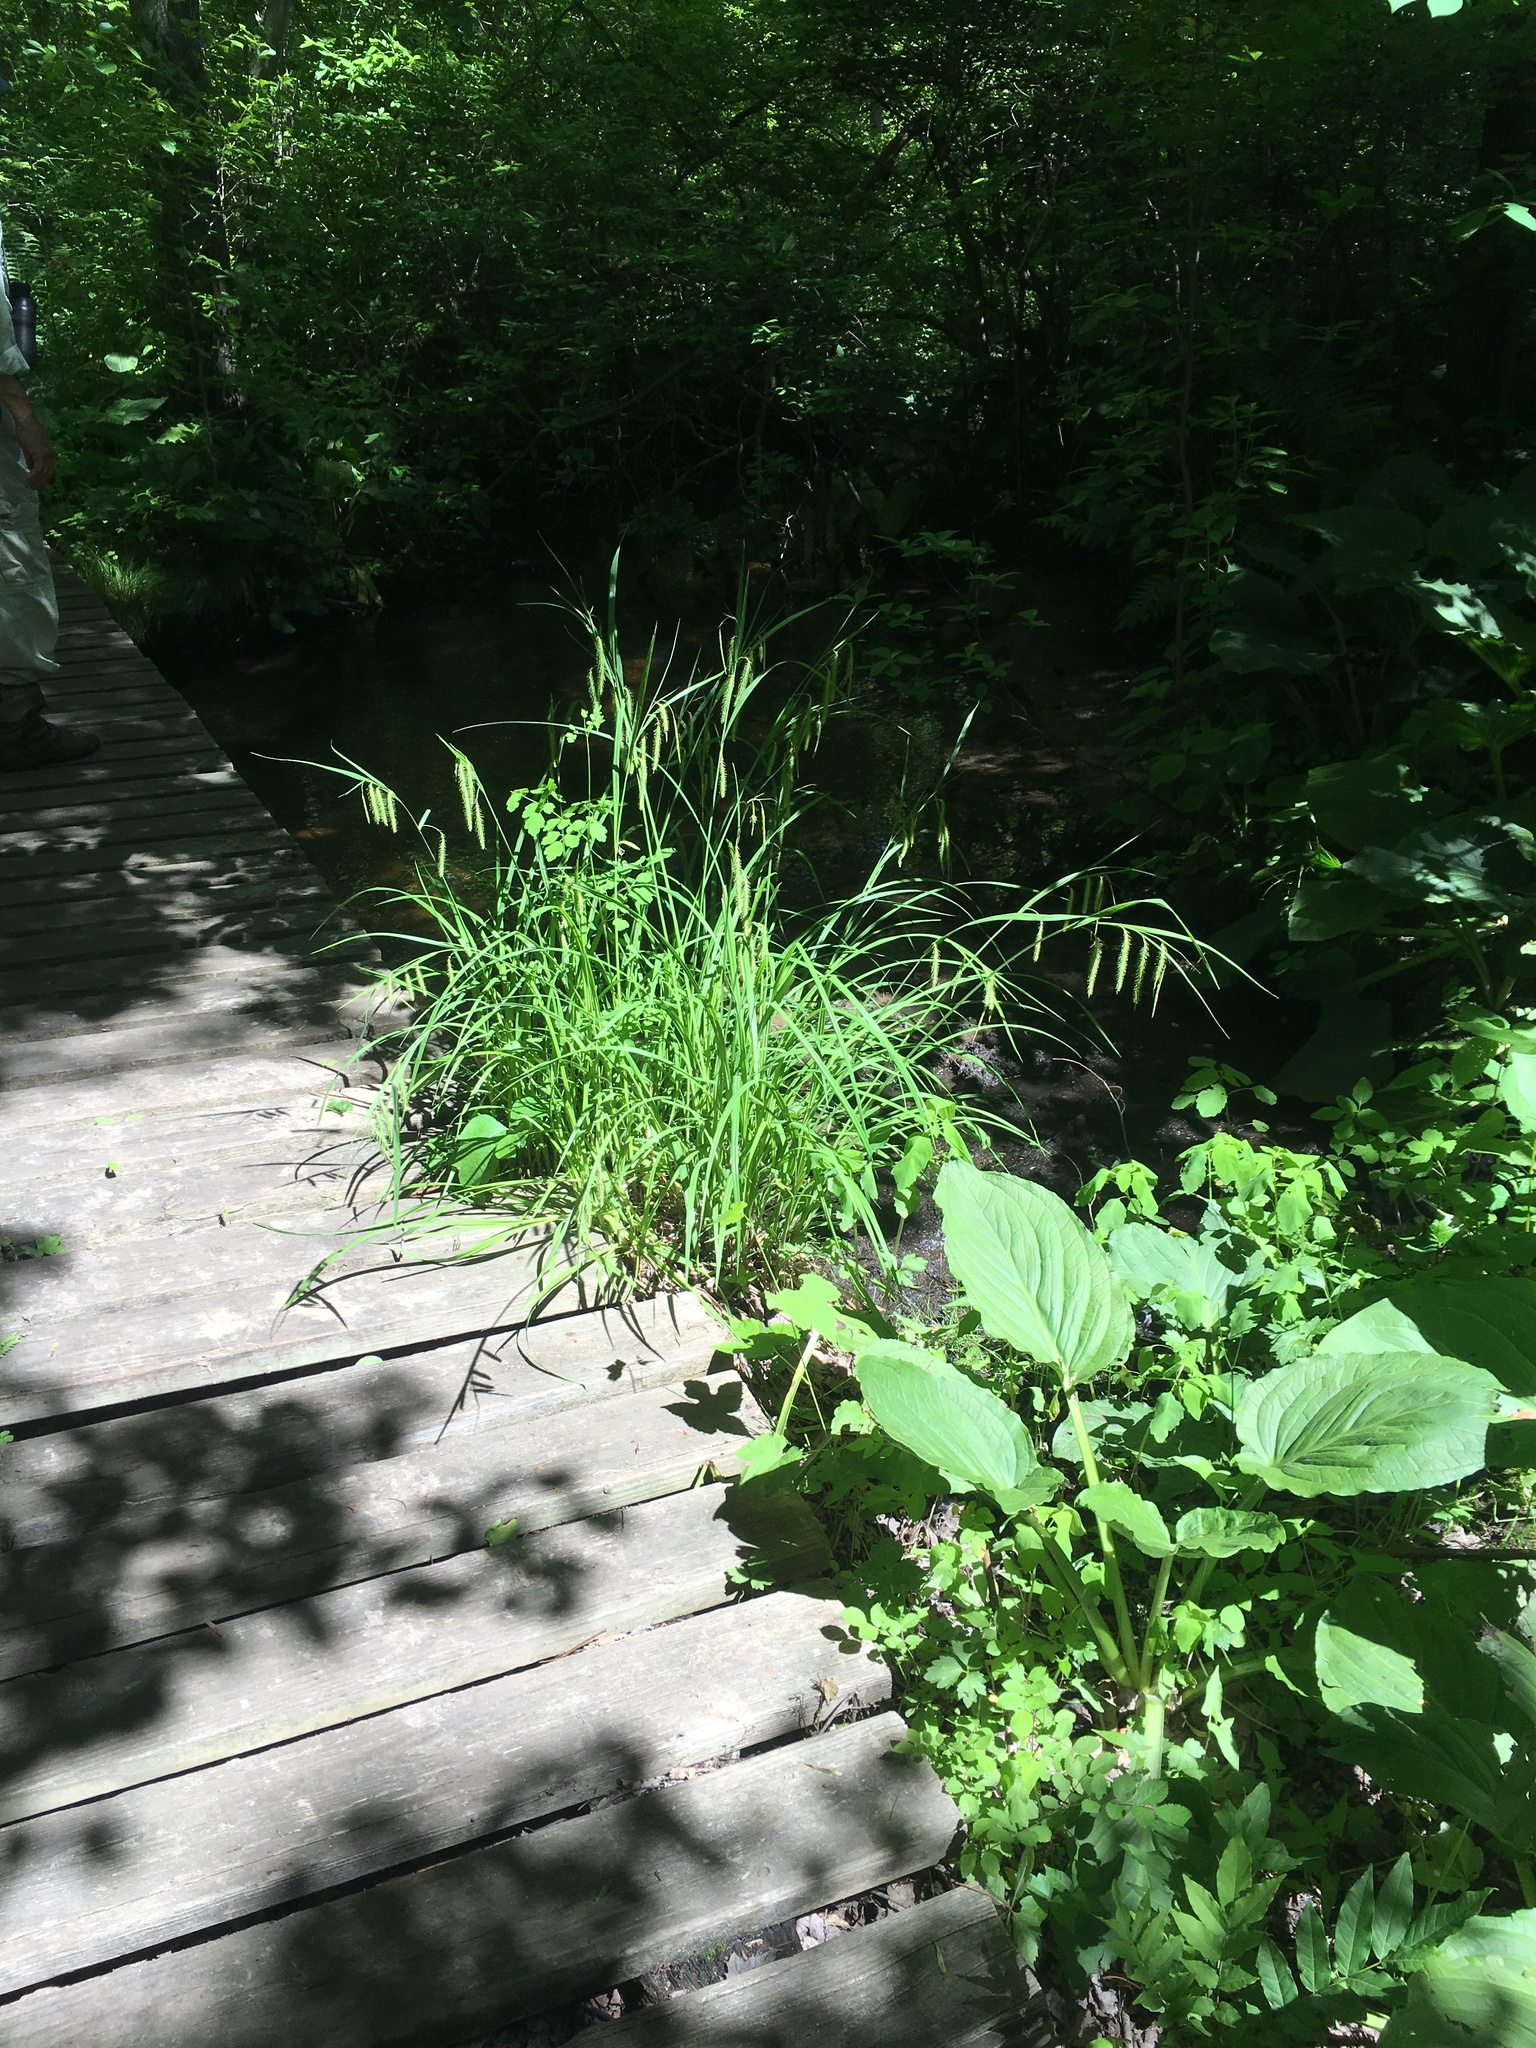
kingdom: Plantae
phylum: Tracheophyta
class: Liliopsida
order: Poales
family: Cyperaceae
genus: Carex
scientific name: Carex crinita
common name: Fringed sedge
